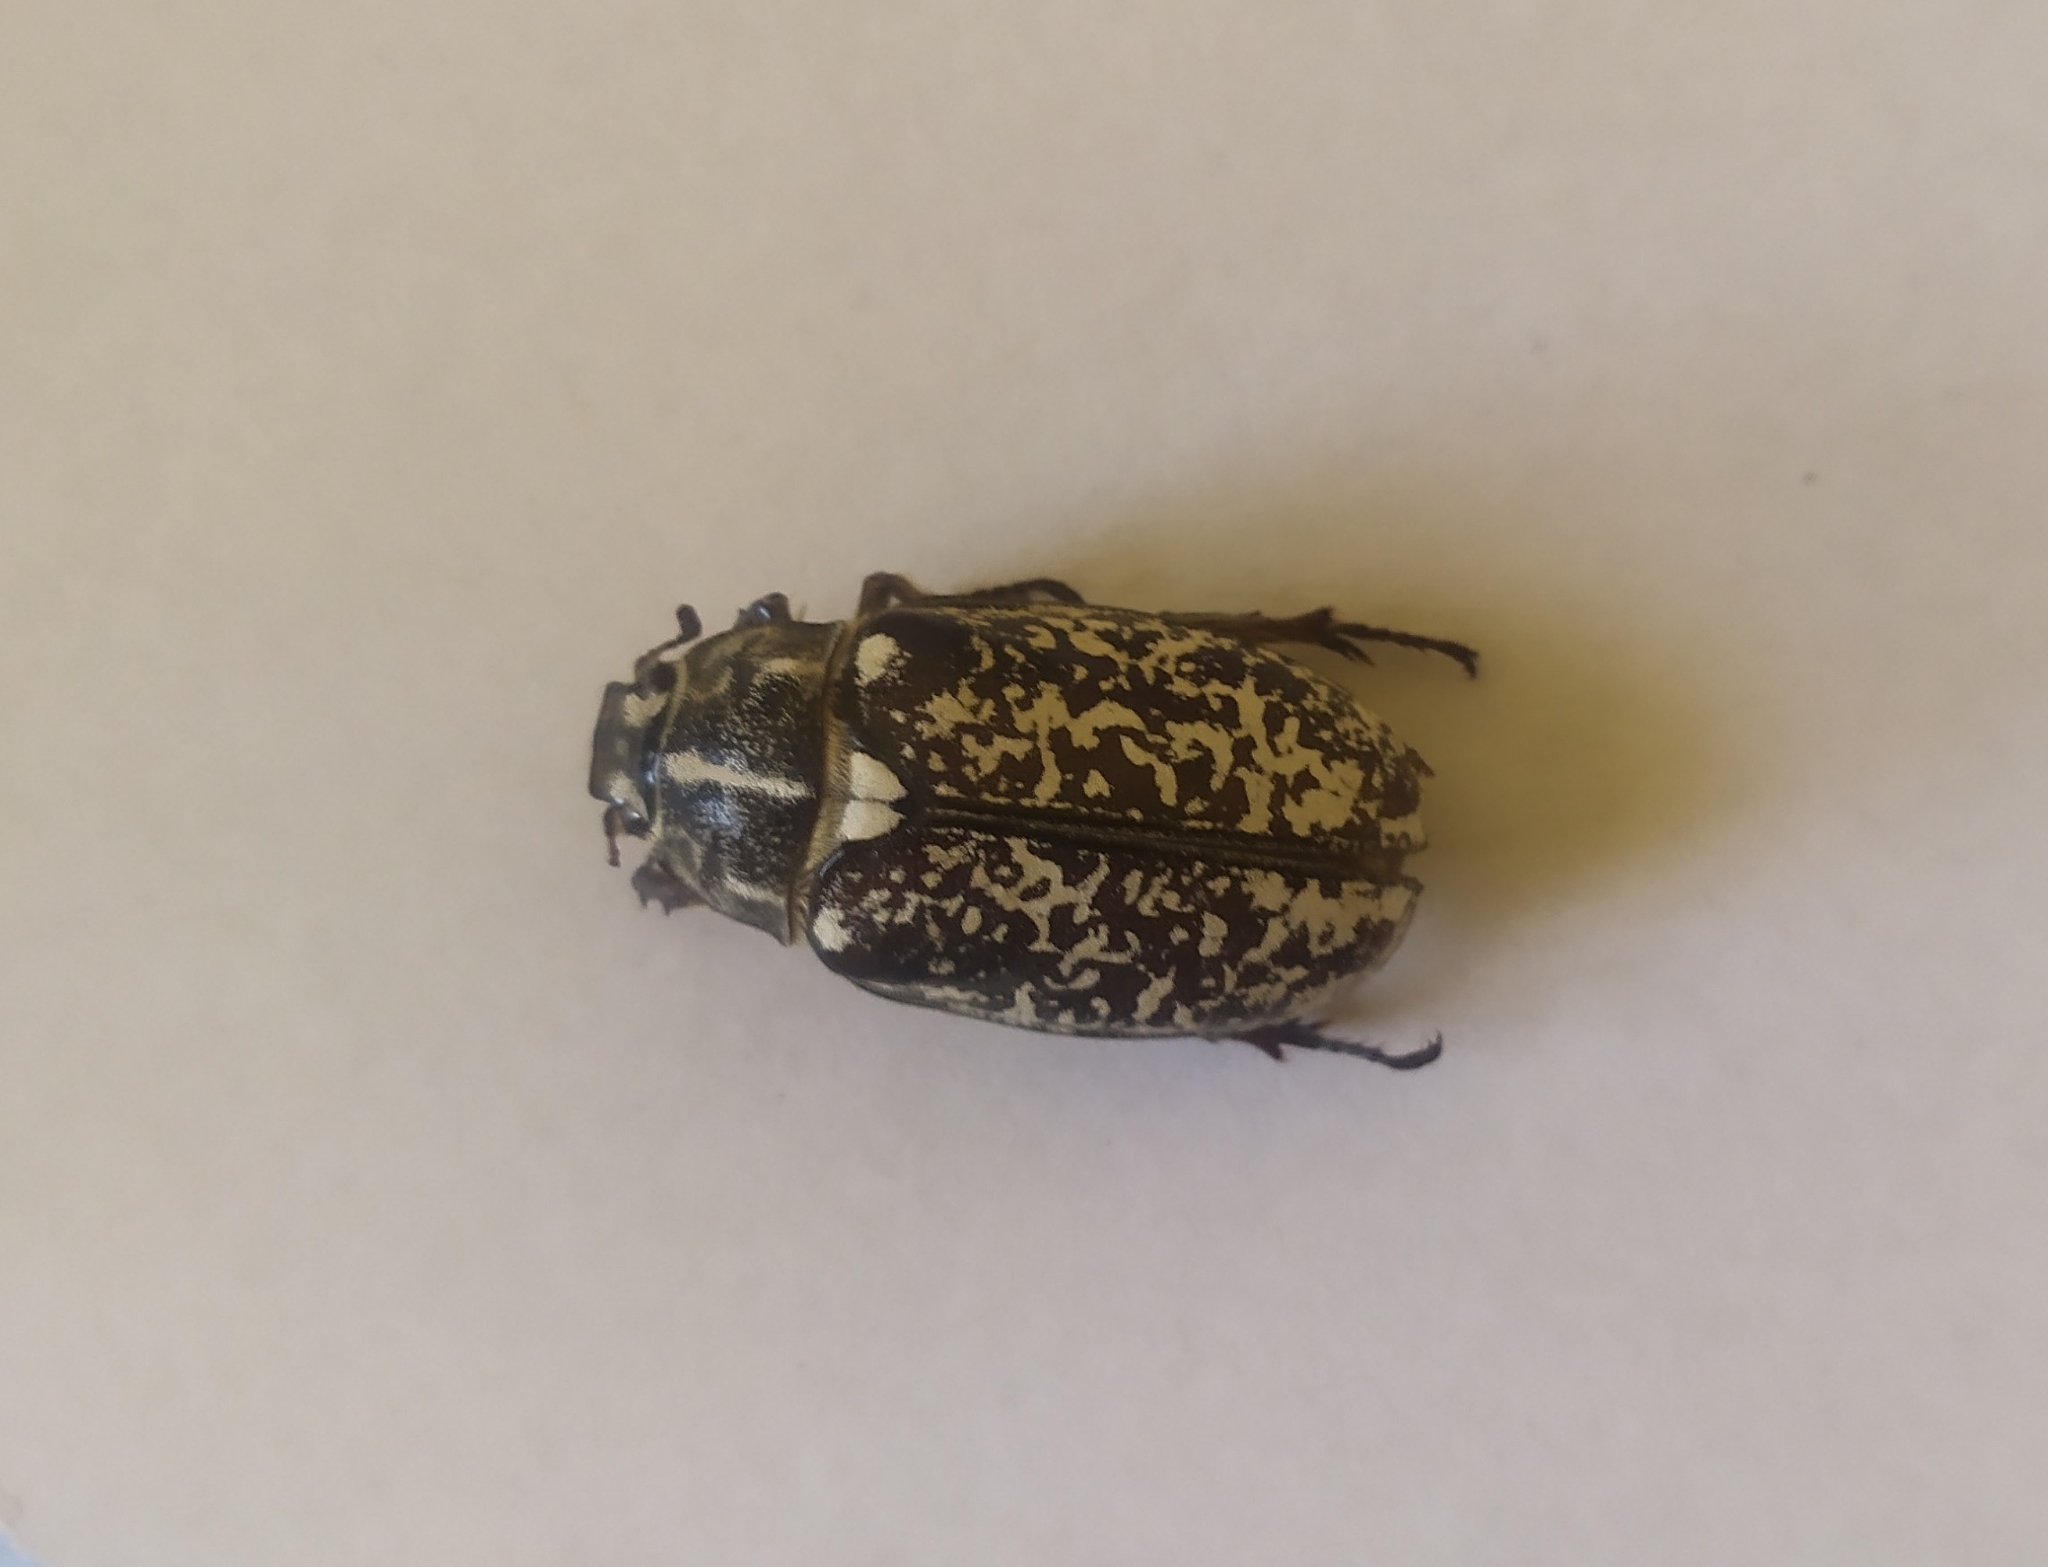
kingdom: Animalia
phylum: Arthropoda
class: Insecta
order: Coleoptera
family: Scarabaeidae
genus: Polyphylla
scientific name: Polyphylla fullo
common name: Pine chafer
